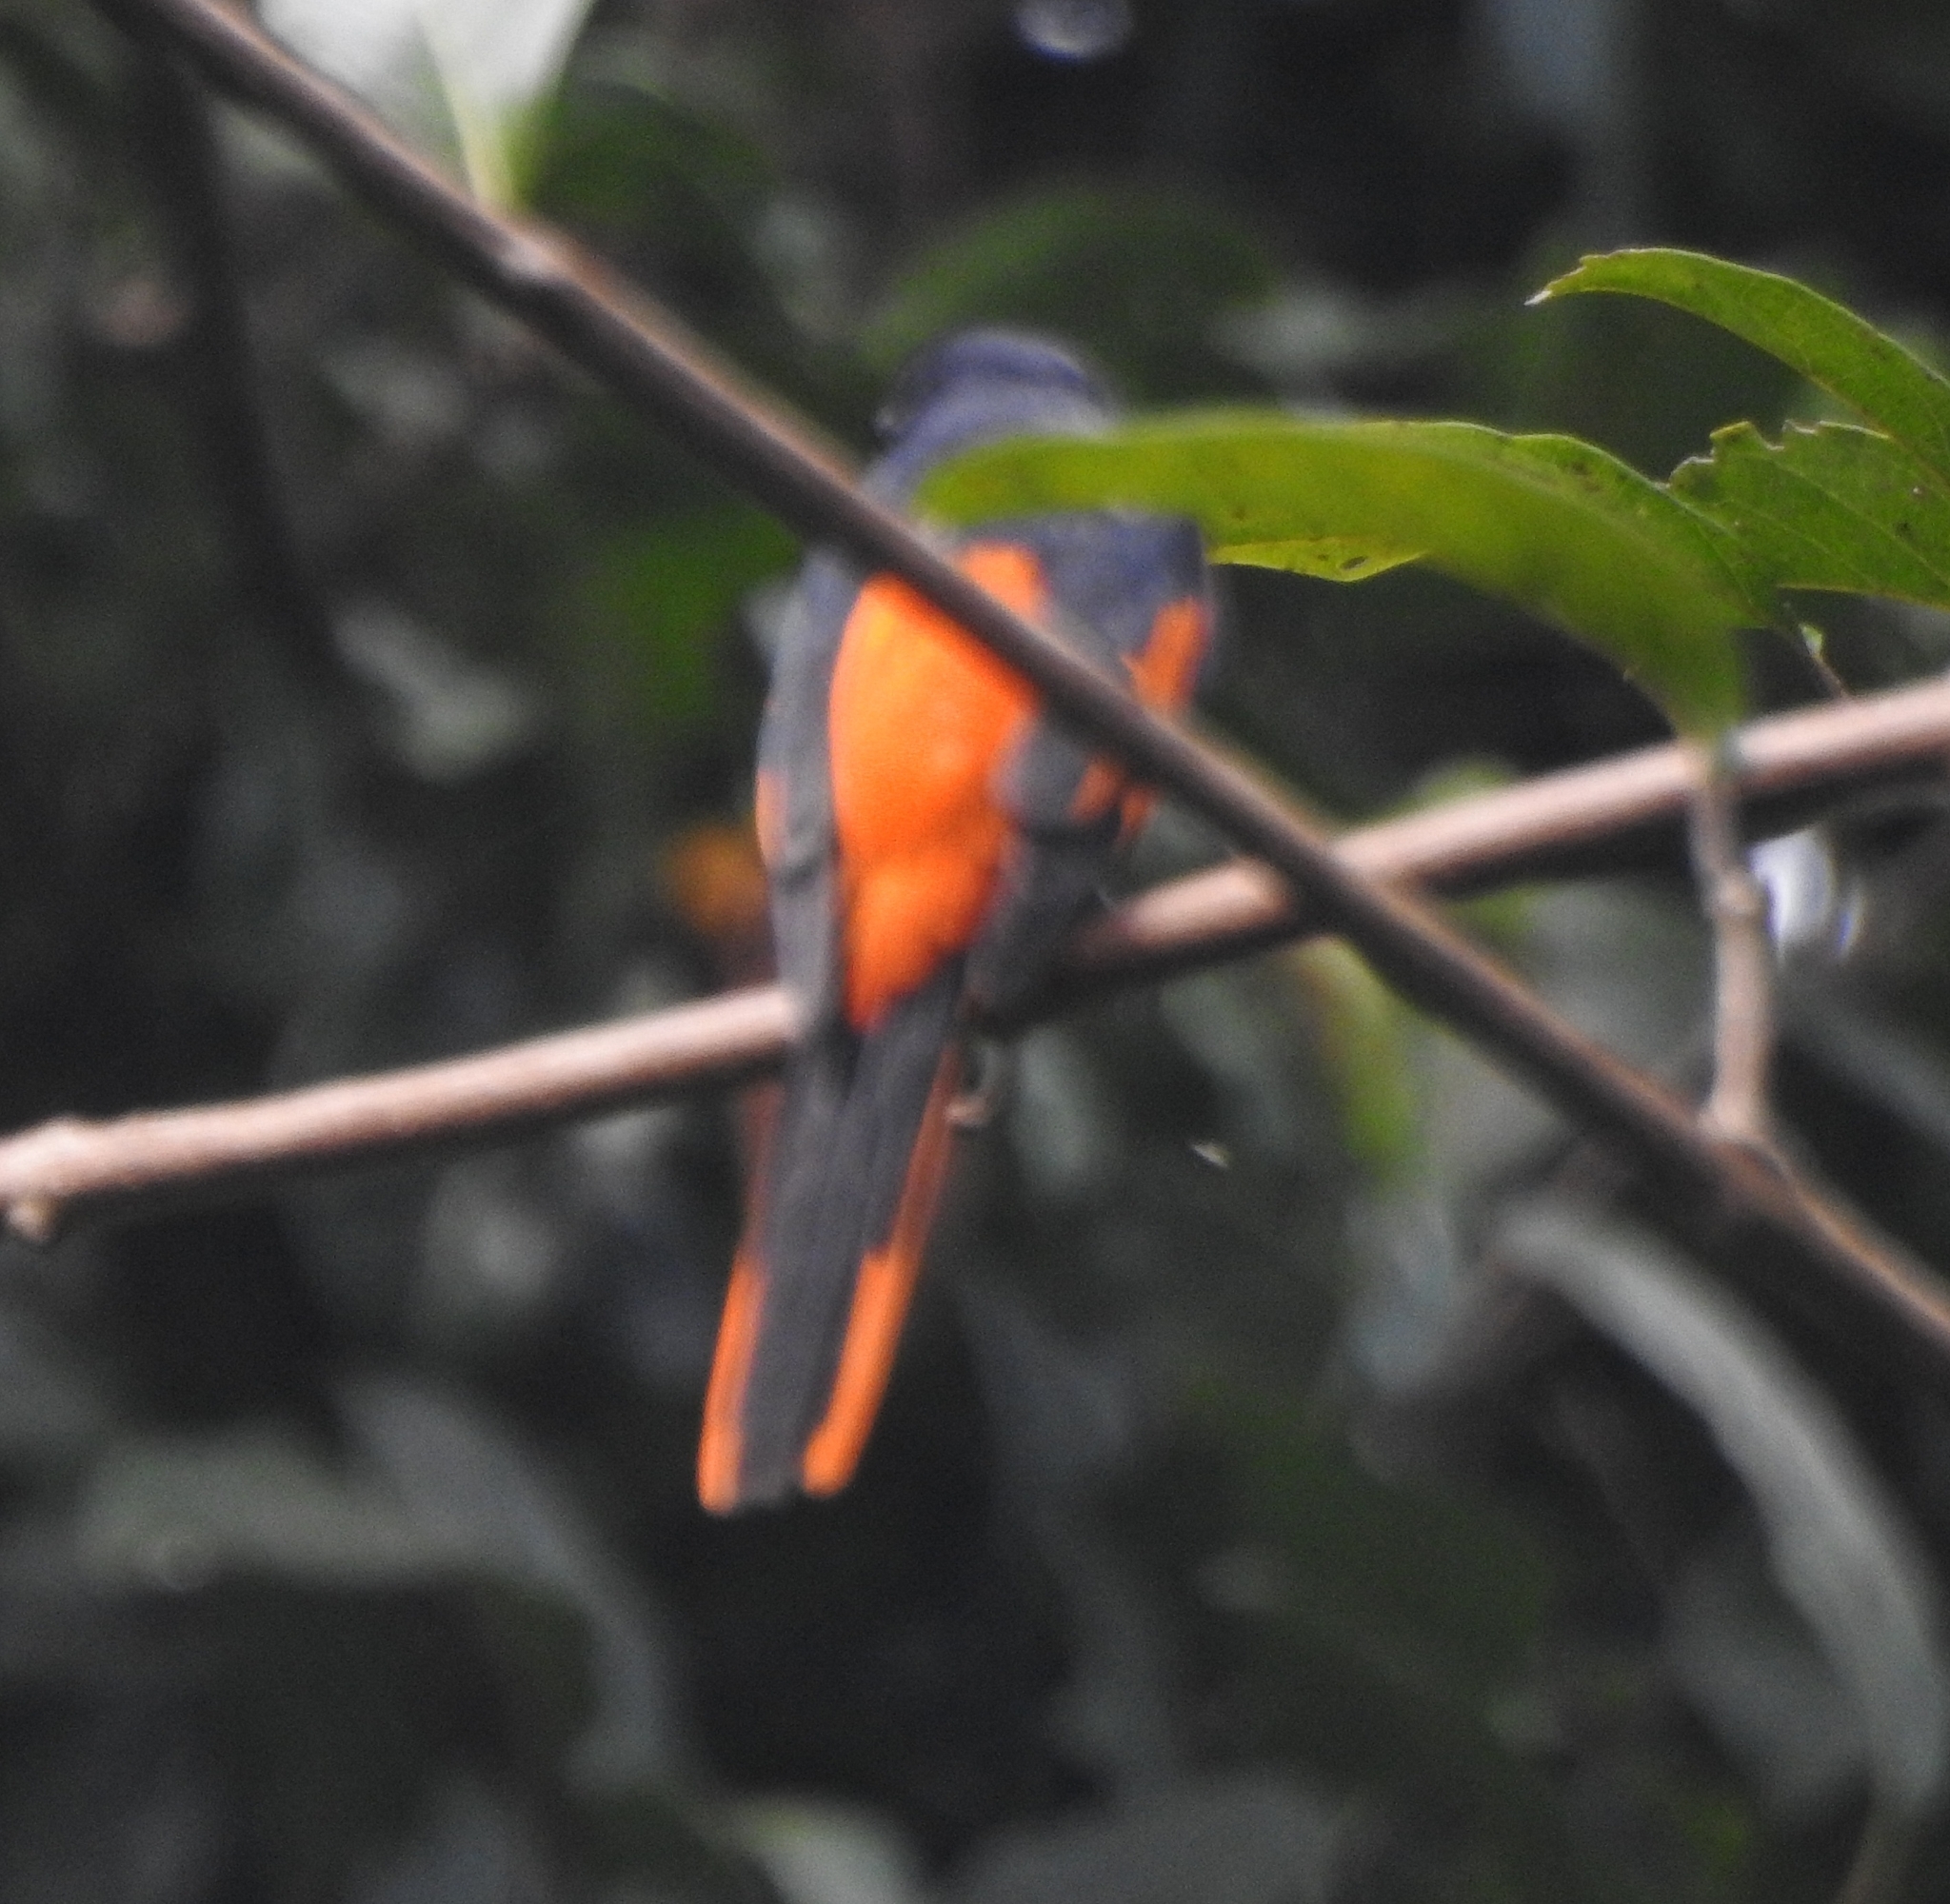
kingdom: Animalia
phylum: Chordata
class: Aves
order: Passeriformes
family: Campephagidae
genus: Pericrocotus
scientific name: Pericrocotus flammeus
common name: Orange minivet
